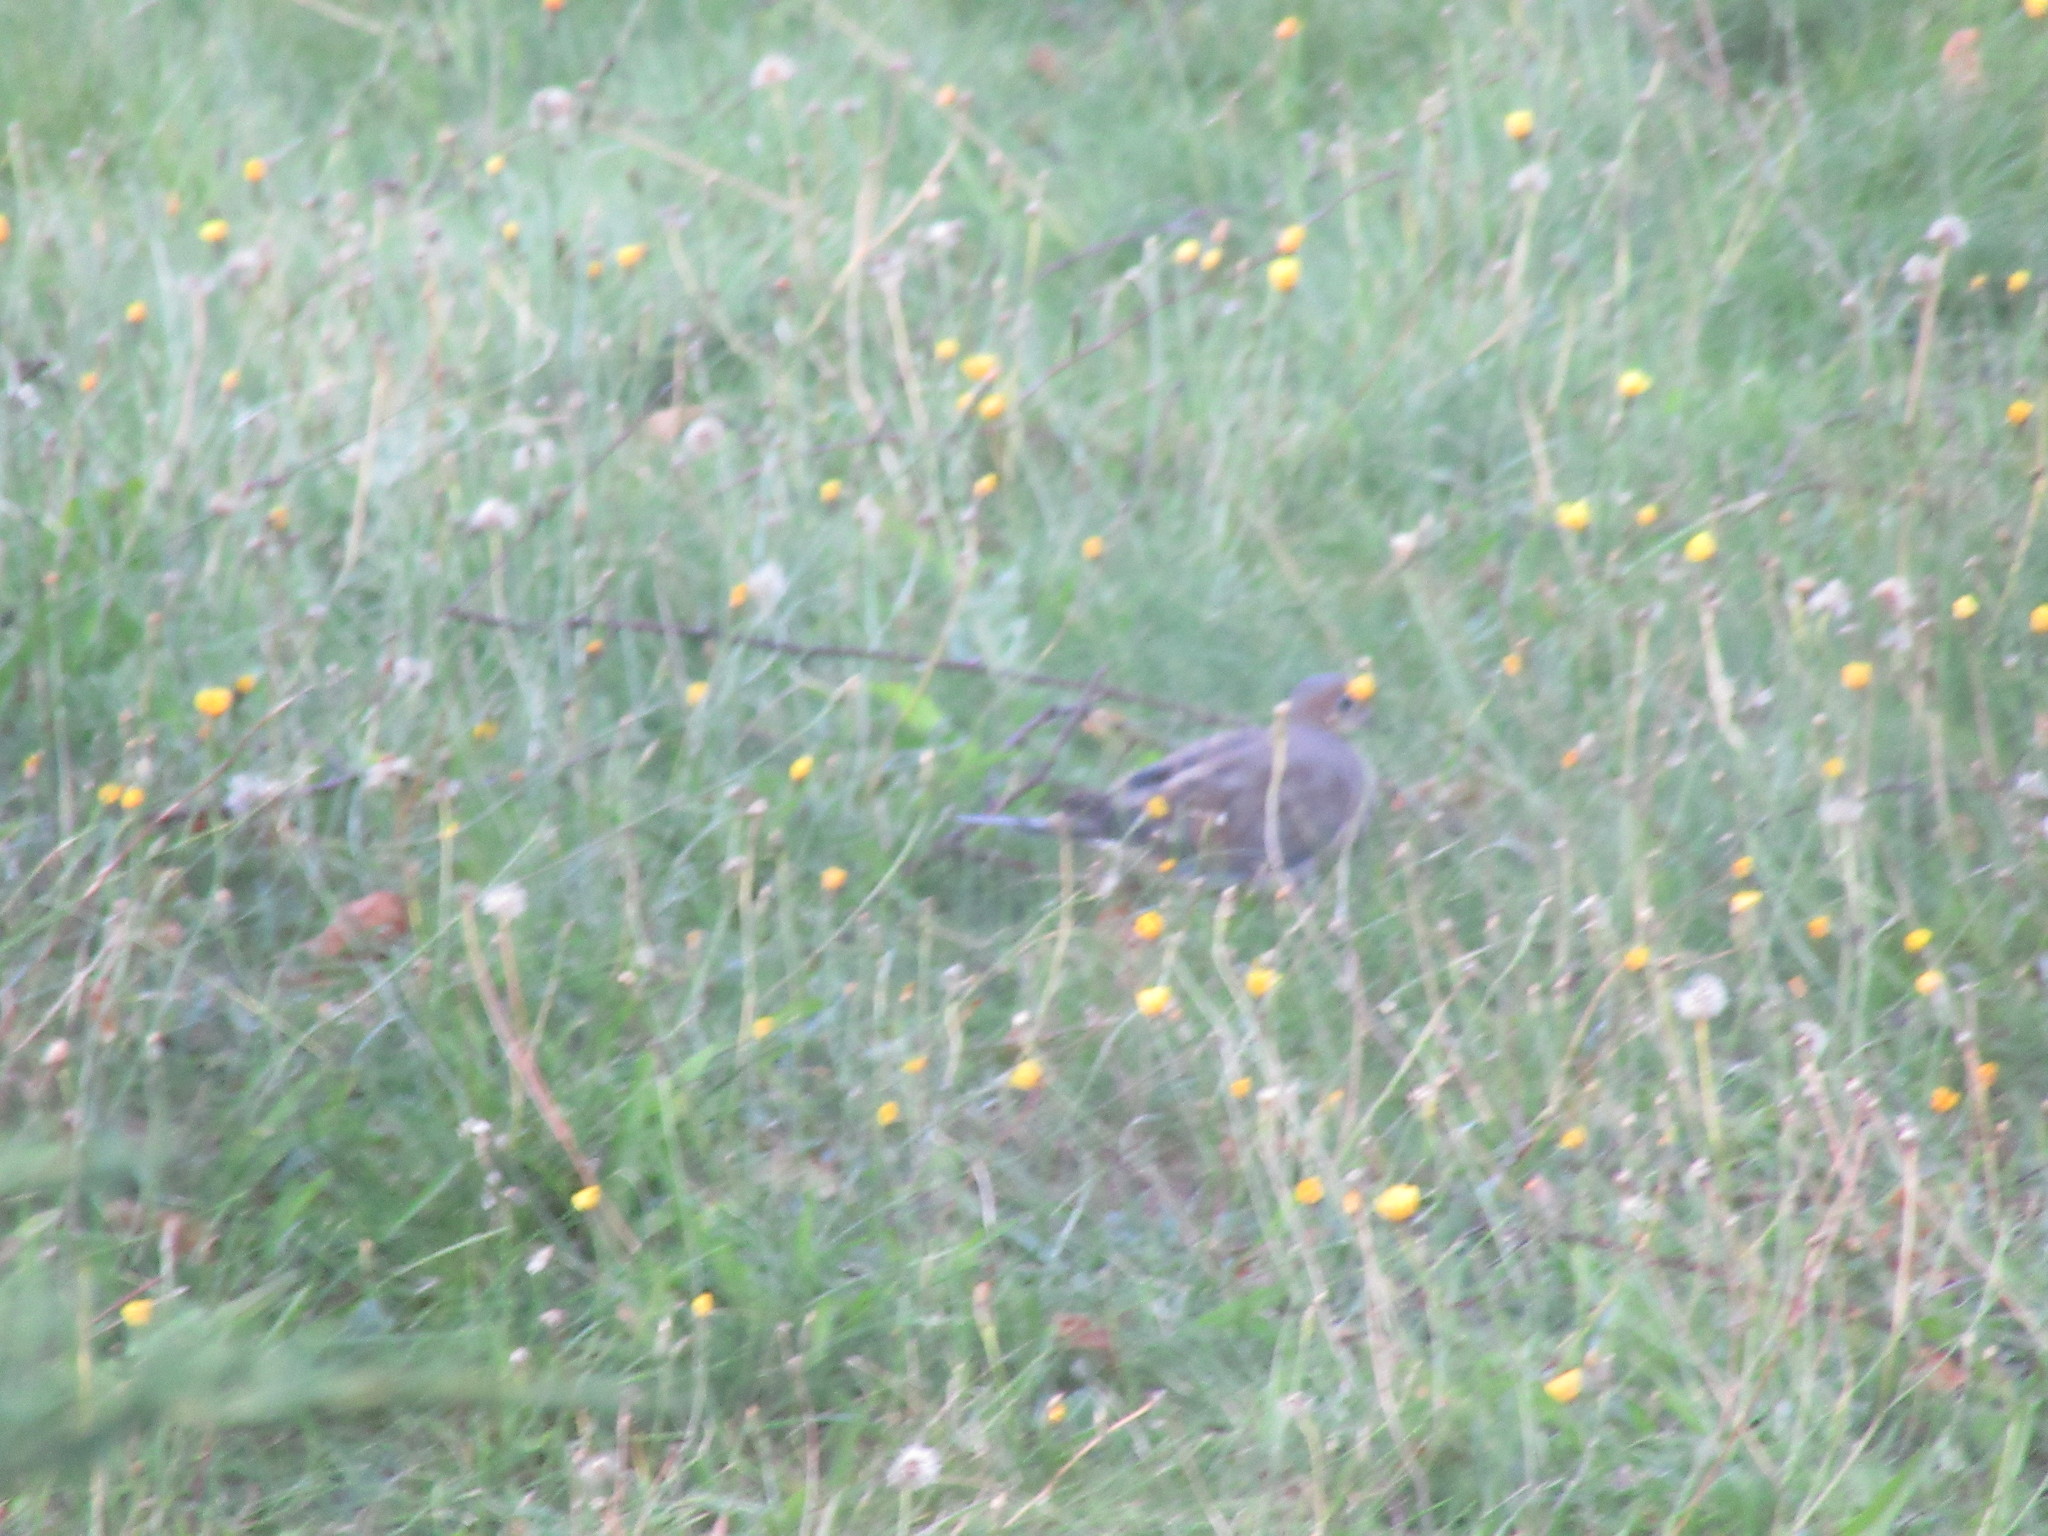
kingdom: Animalia
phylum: Chordata
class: Aves
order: Columbiformes
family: Columbidae
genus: Zenaida
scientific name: Zenaida macroura
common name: Mourning dove
